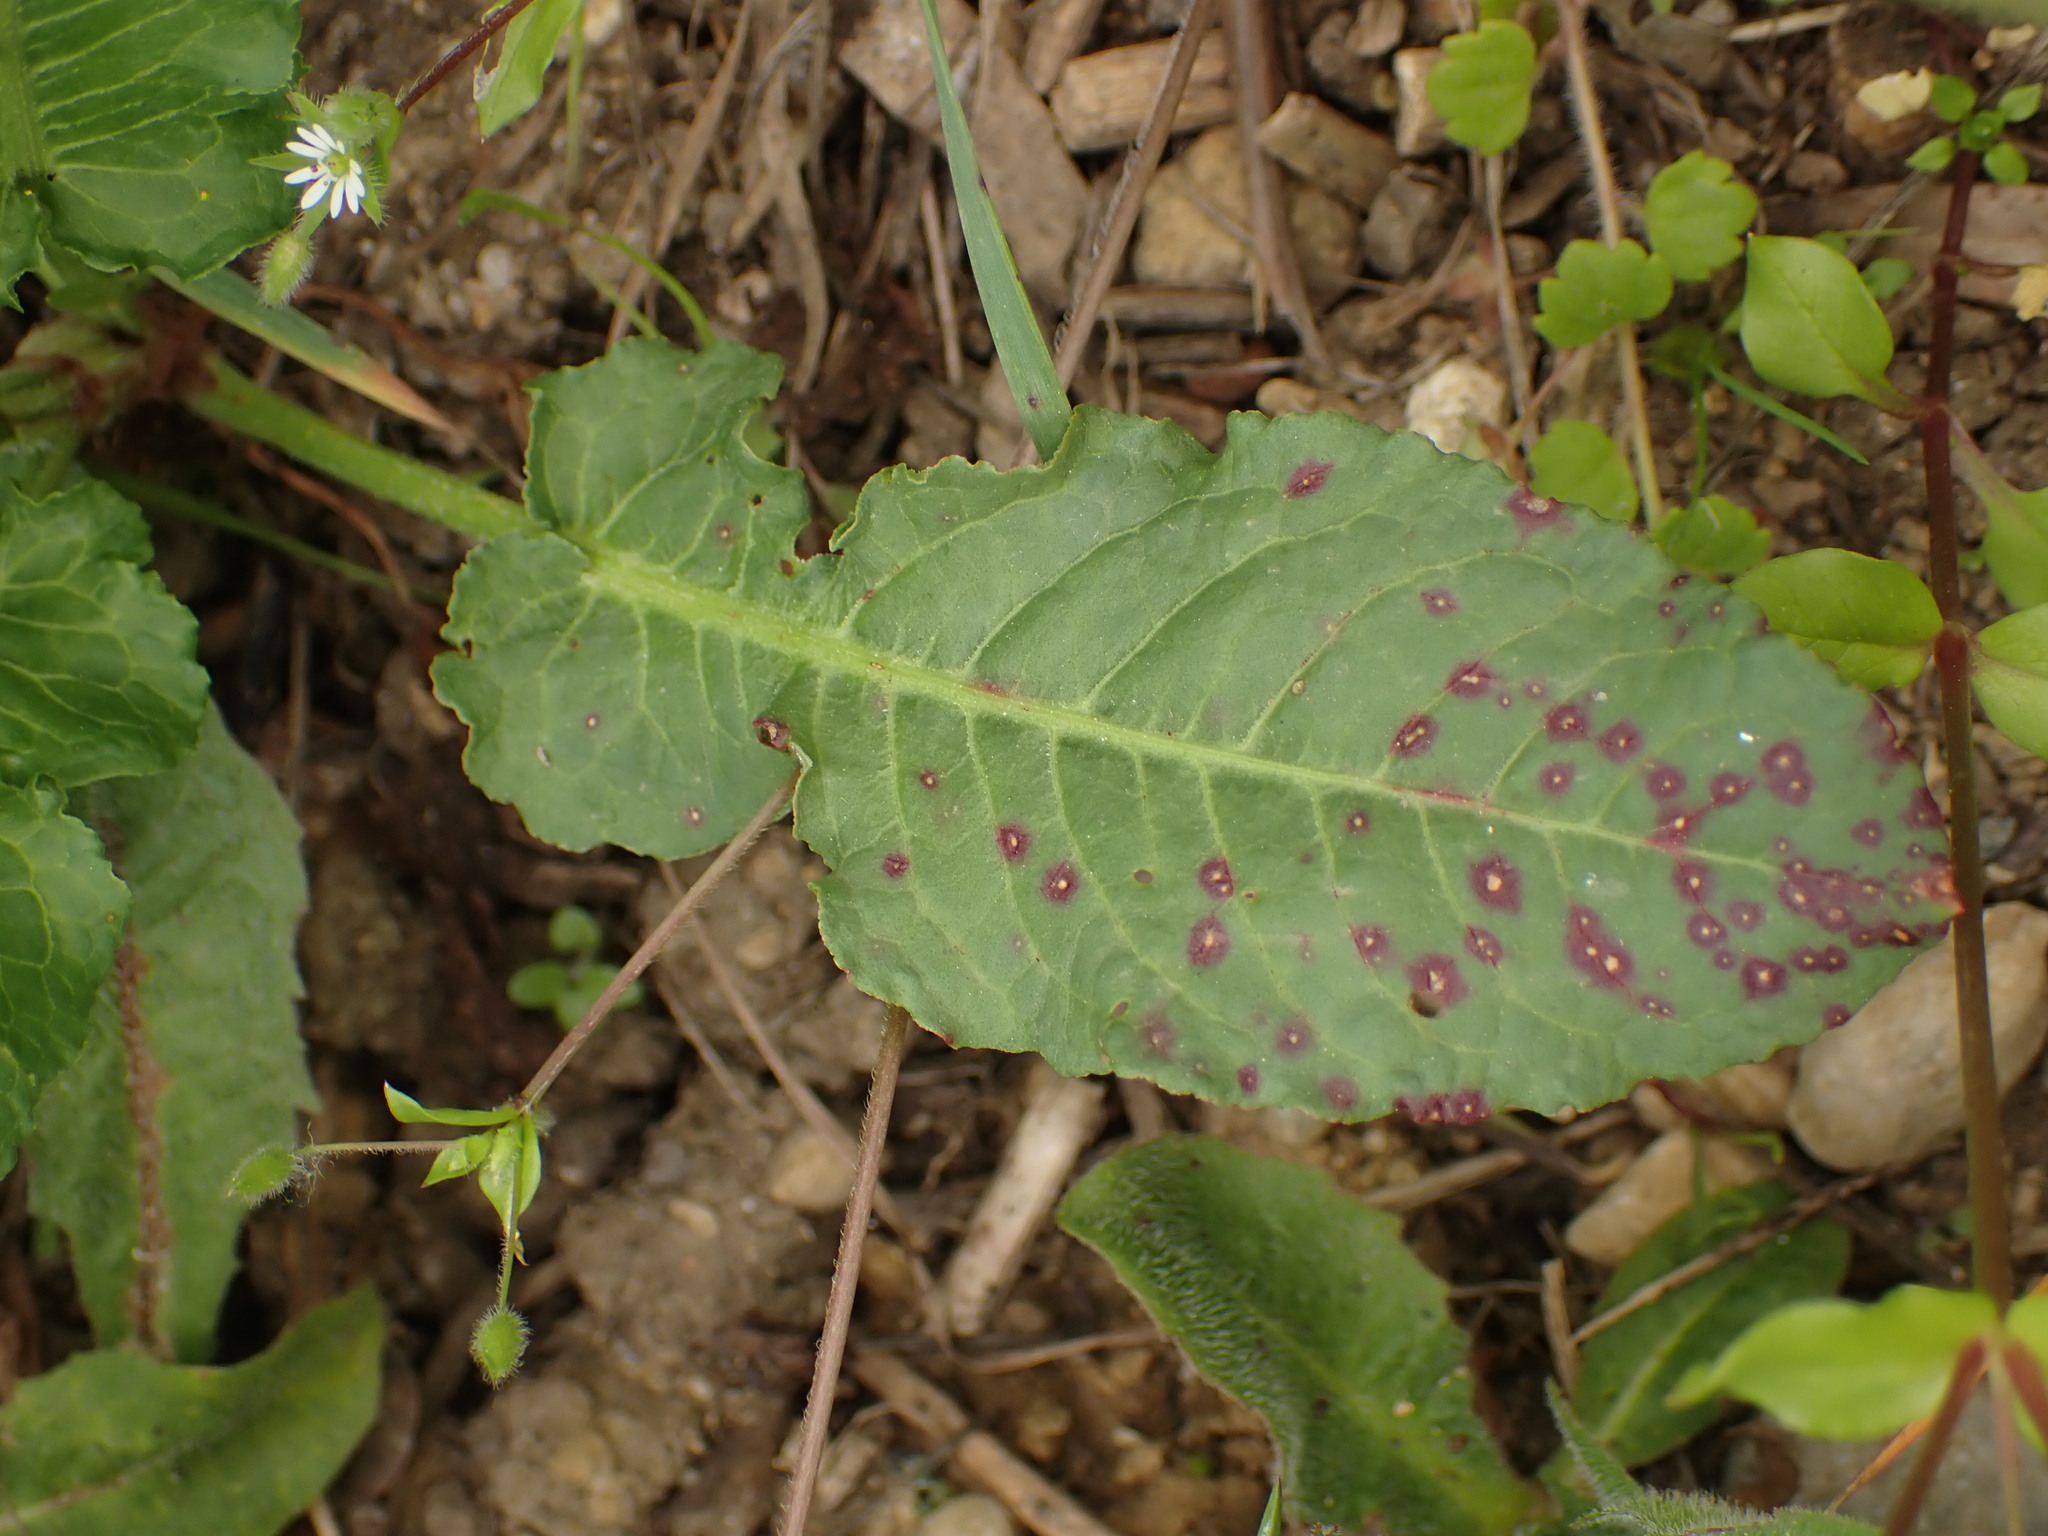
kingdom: Plantae
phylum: Tracheophyta
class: Magnoliopsida
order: Caryophyllales
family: Polygonaceae
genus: Rumex
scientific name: Rumex pulcher
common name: Fiddle dock
